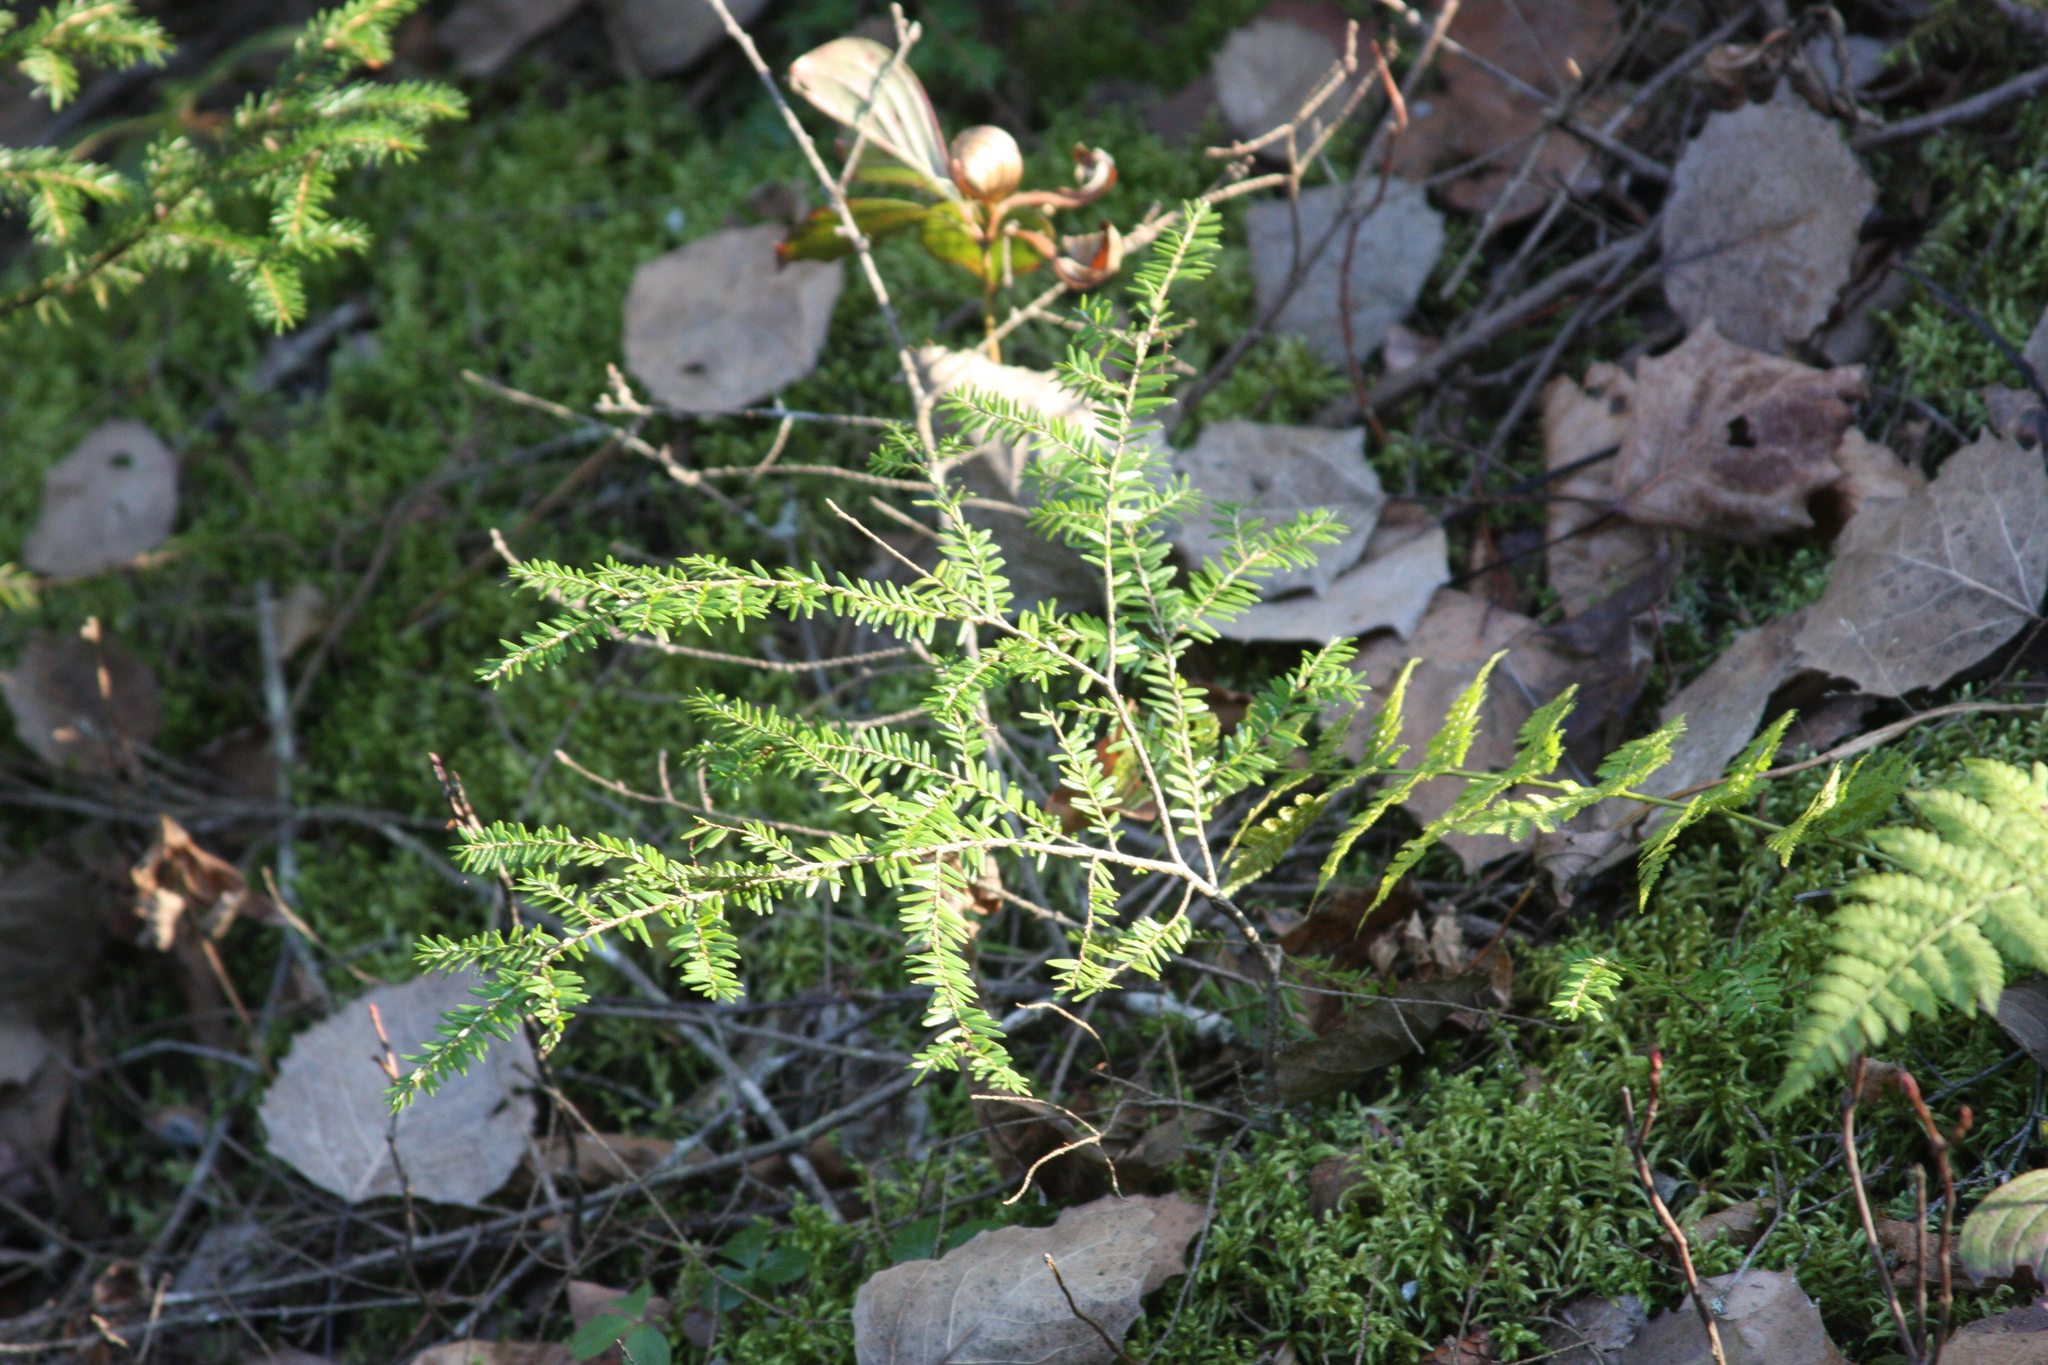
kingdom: Plantae
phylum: Tracheophyta
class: Pinopsida
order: Pinales
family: Pinaceae
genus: Tsuga
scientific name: Tsuga canadensis
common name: Eastern hemlock
